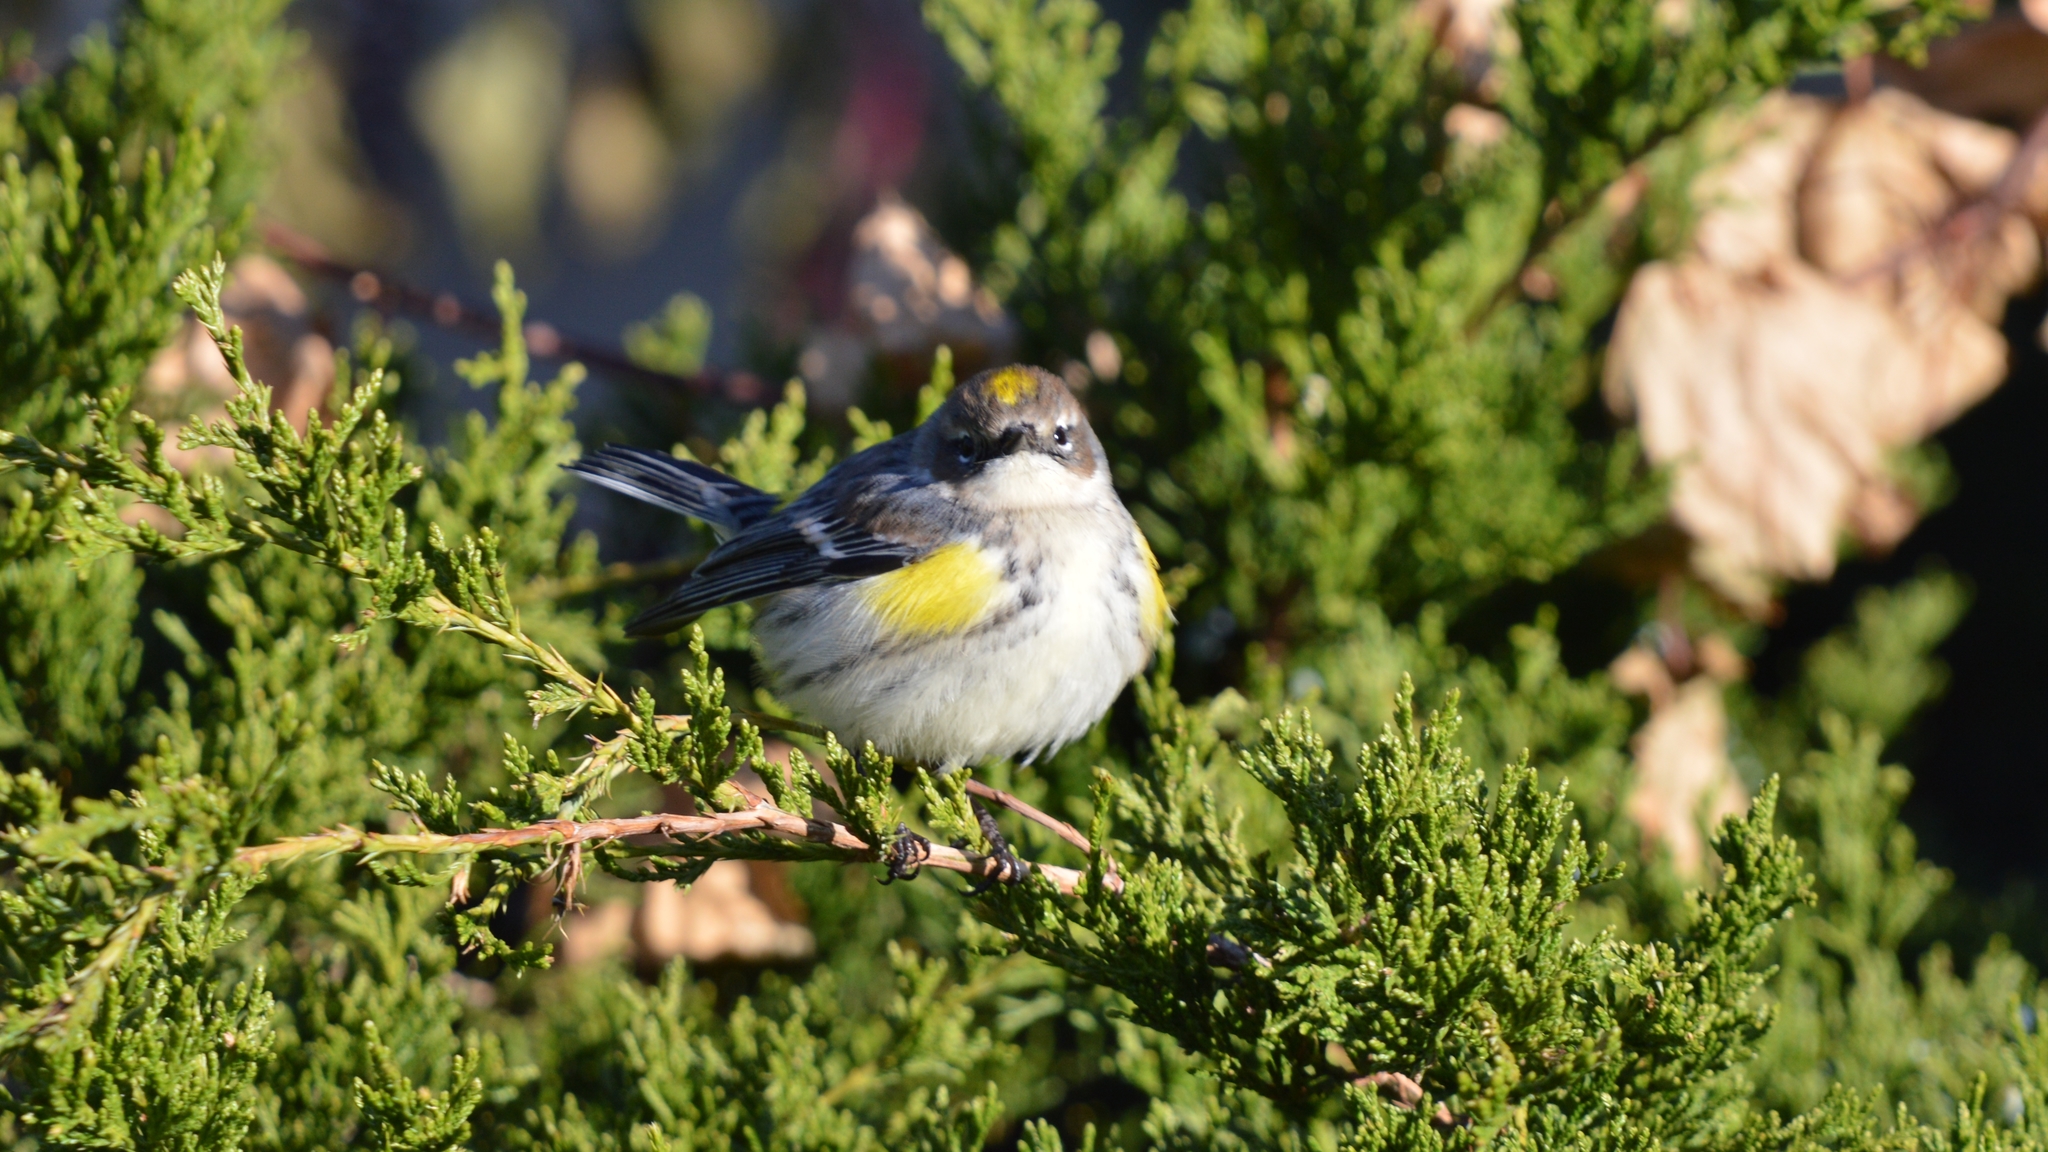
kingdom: Animalia
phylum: Chordata
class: Aves
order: Passeriformes
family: Parulidae
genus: Setophaga
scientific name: Setophaga coronata
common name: Myrtle warbler
